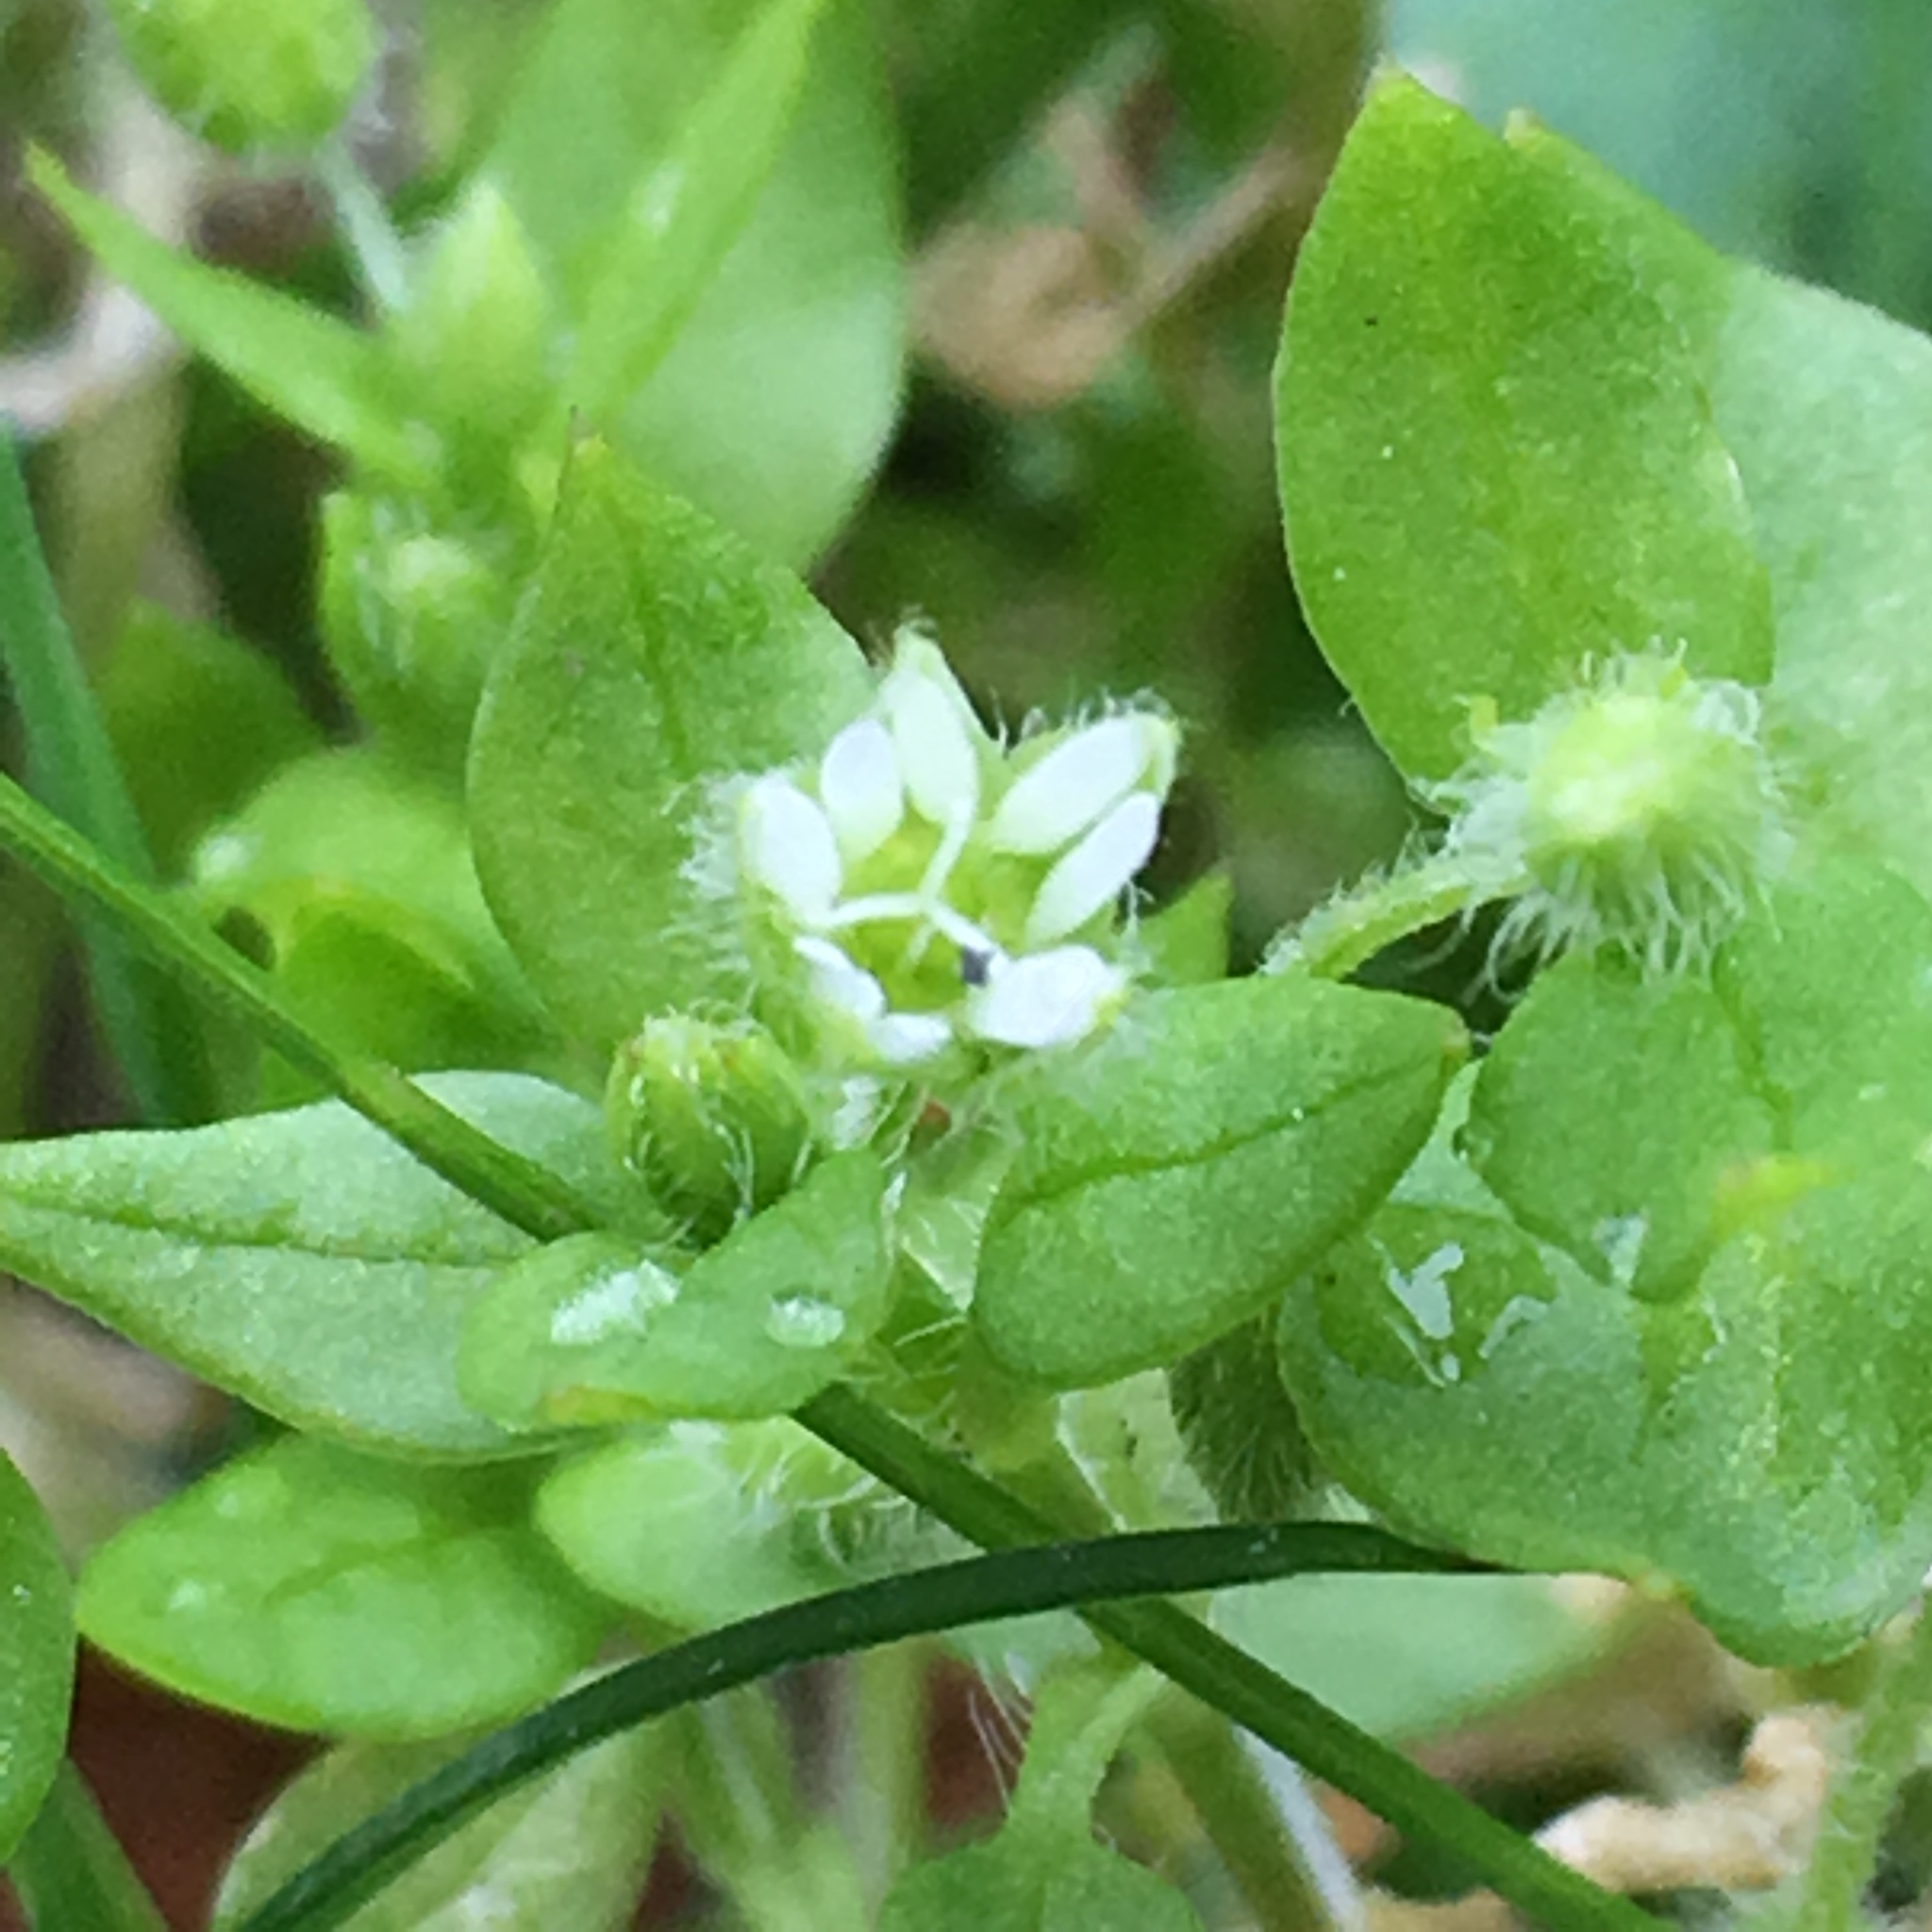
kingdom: Plantae
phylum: Tracheophyta
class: Magnoliopsida
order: Caryophyllales
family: Caryophyllaceae
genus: Stellaria
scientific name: Stellaria media
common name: Common chickweed
